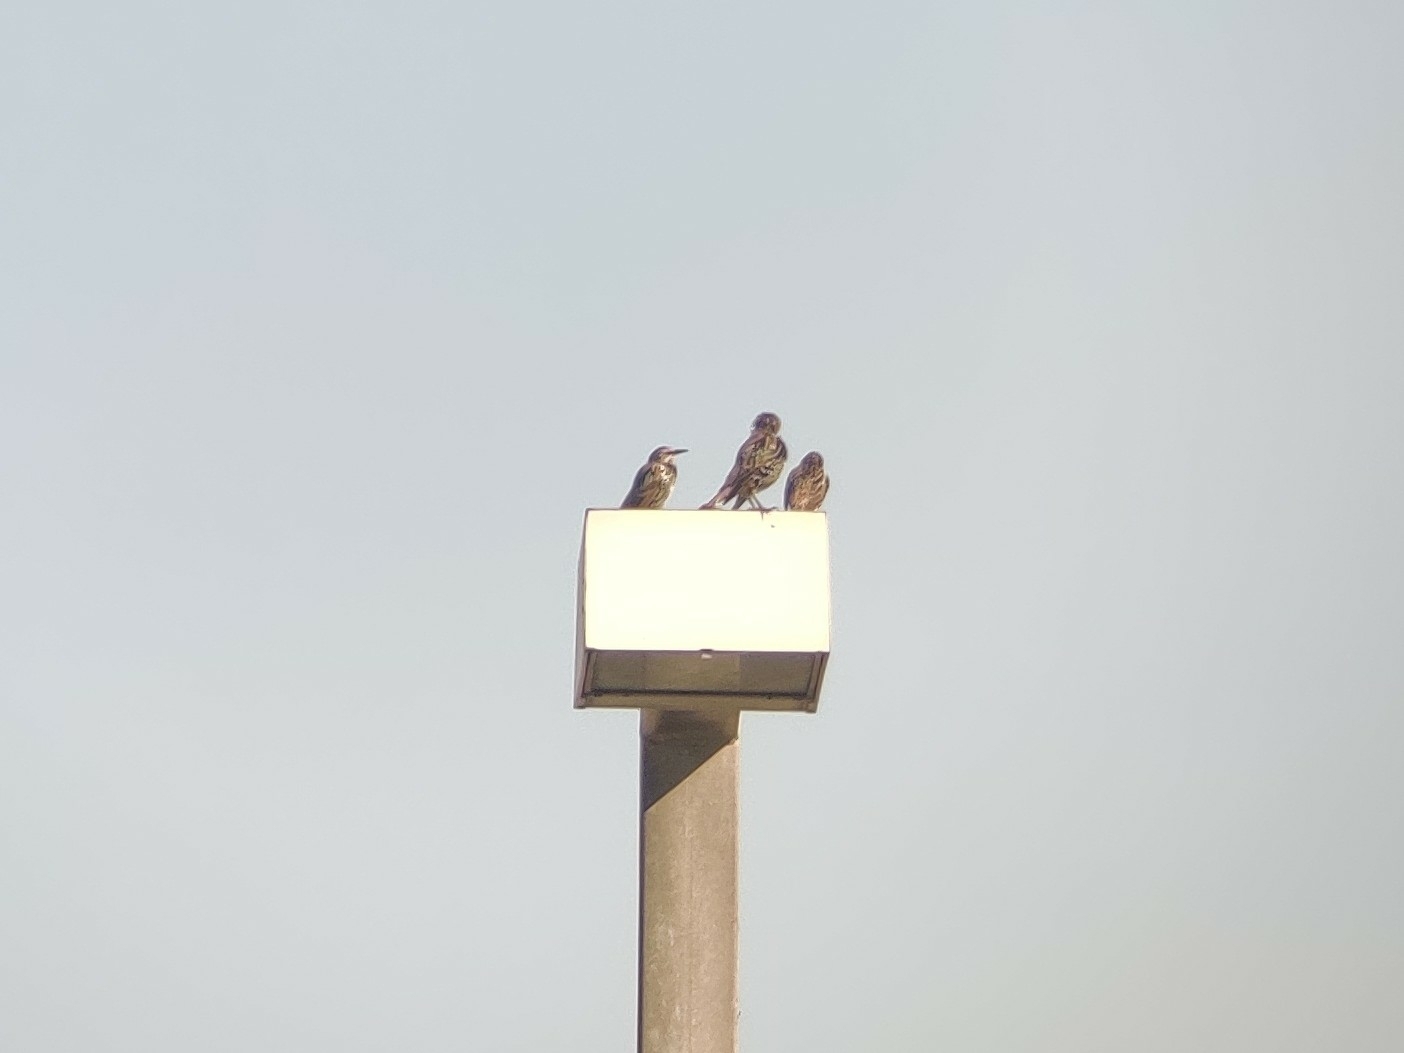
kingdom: Animalia
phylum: Chordata
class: Aves
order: Passeriformes
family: Sturnidae
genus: Sturnus
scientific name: Sturnus vulgaris
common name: Common starling
